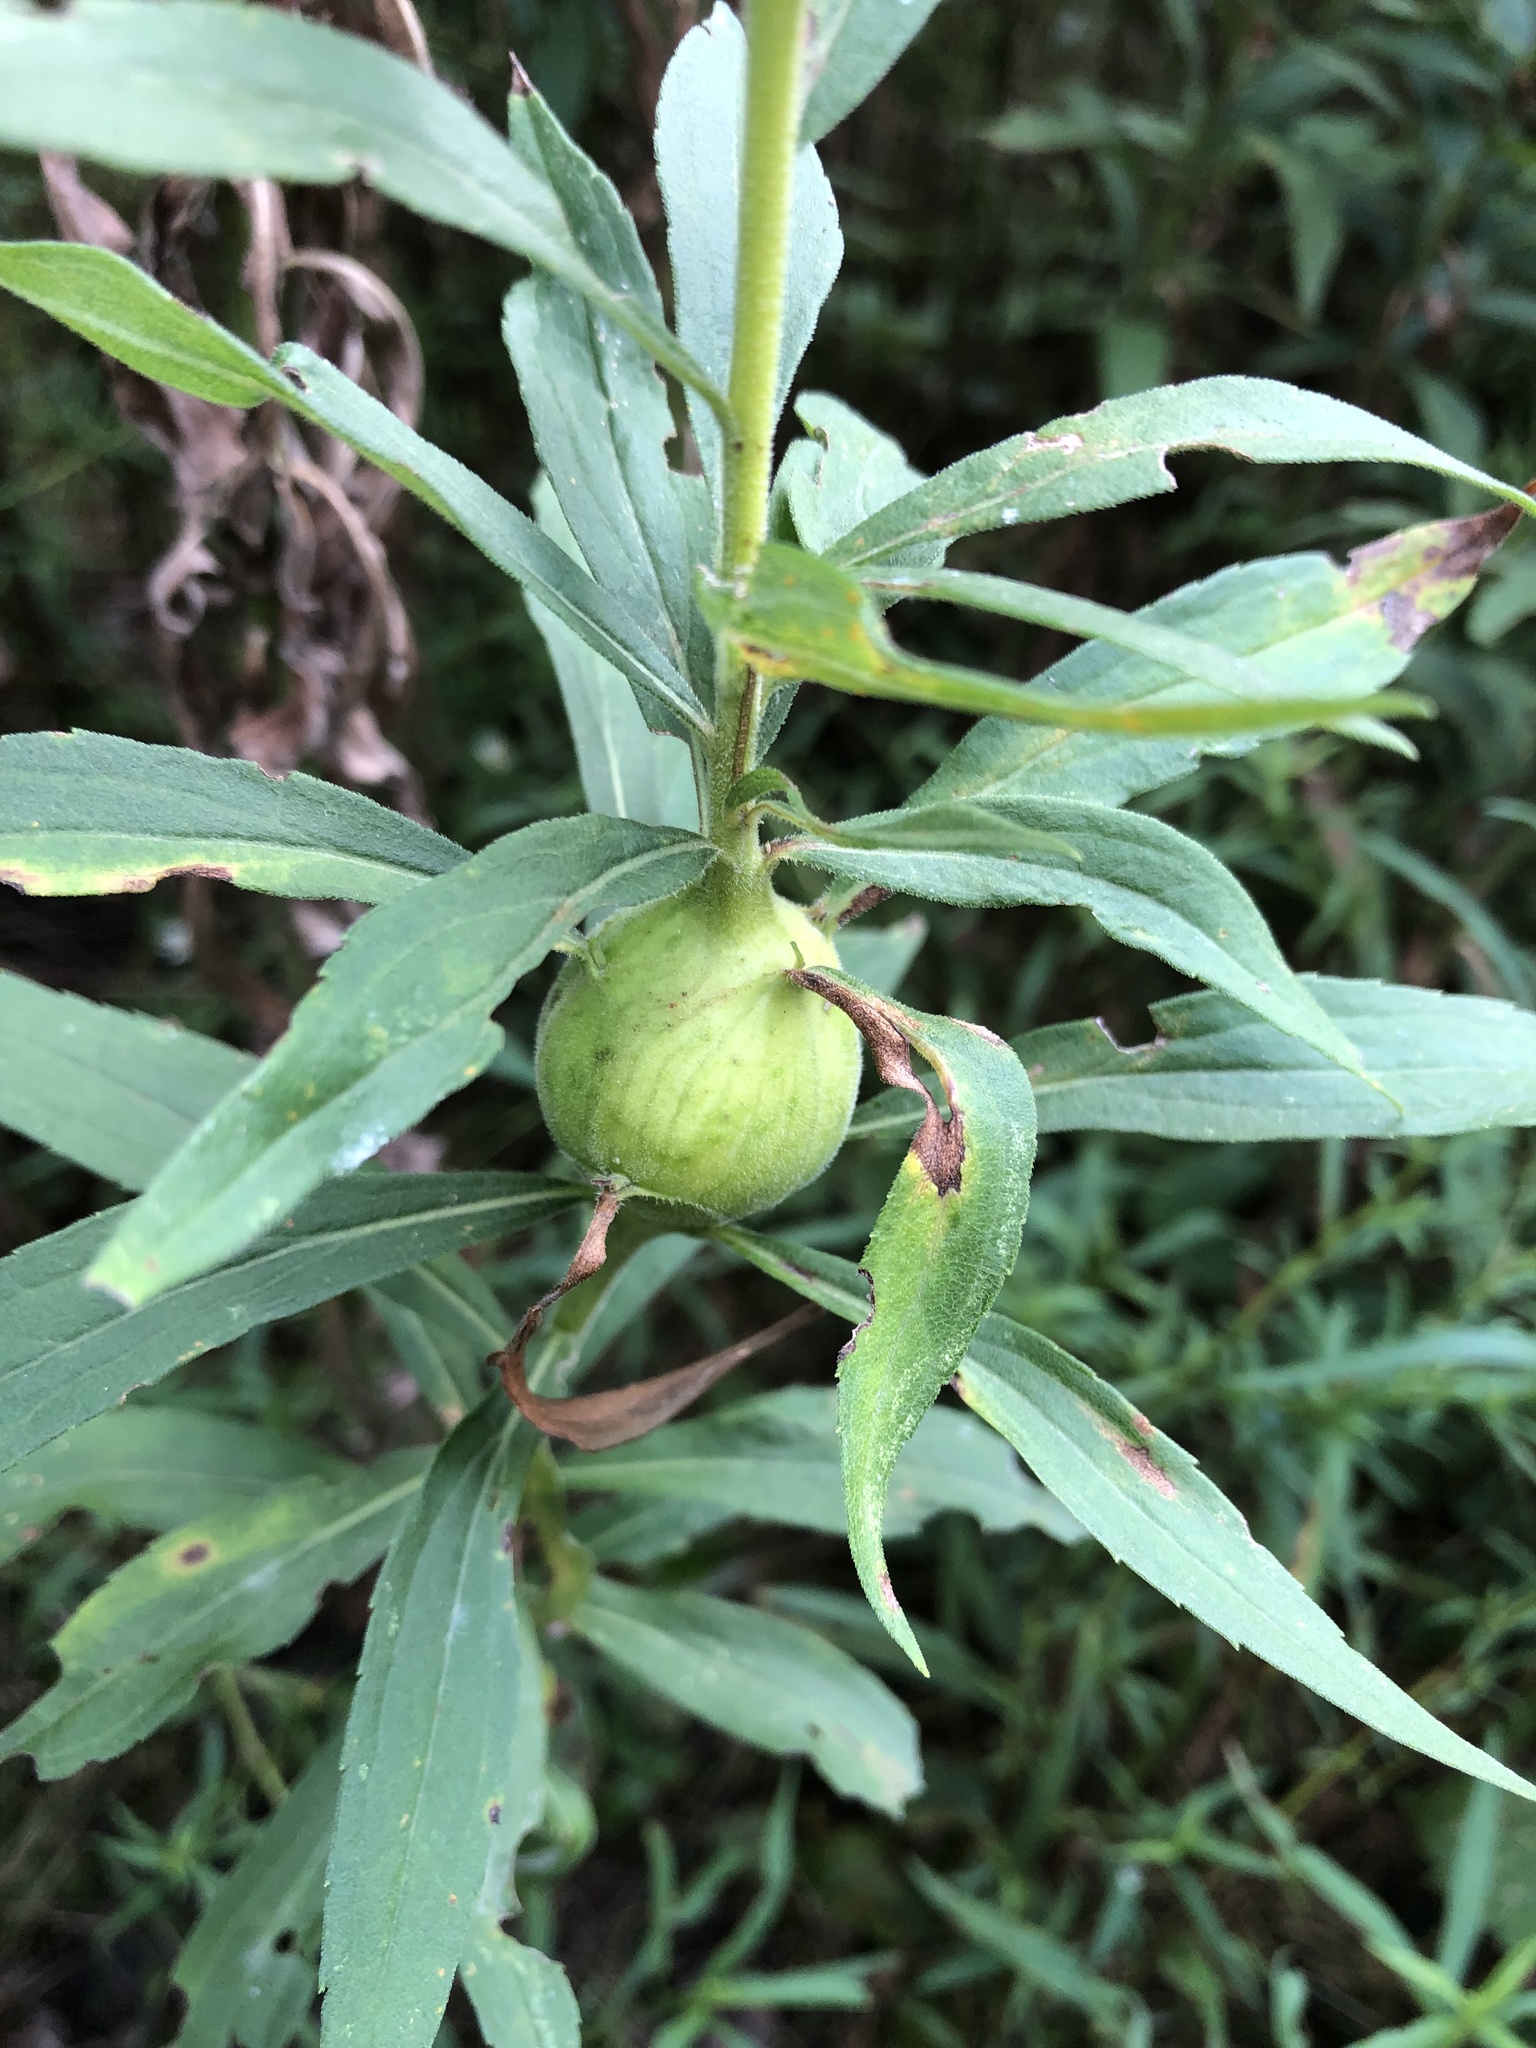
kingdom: Animalia
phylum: Arthropoda
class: Insecta
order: Diptera
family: Tephritidae
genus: Eurosta
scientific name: Eurosta solidaginis
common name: Goldenrod gall fly
